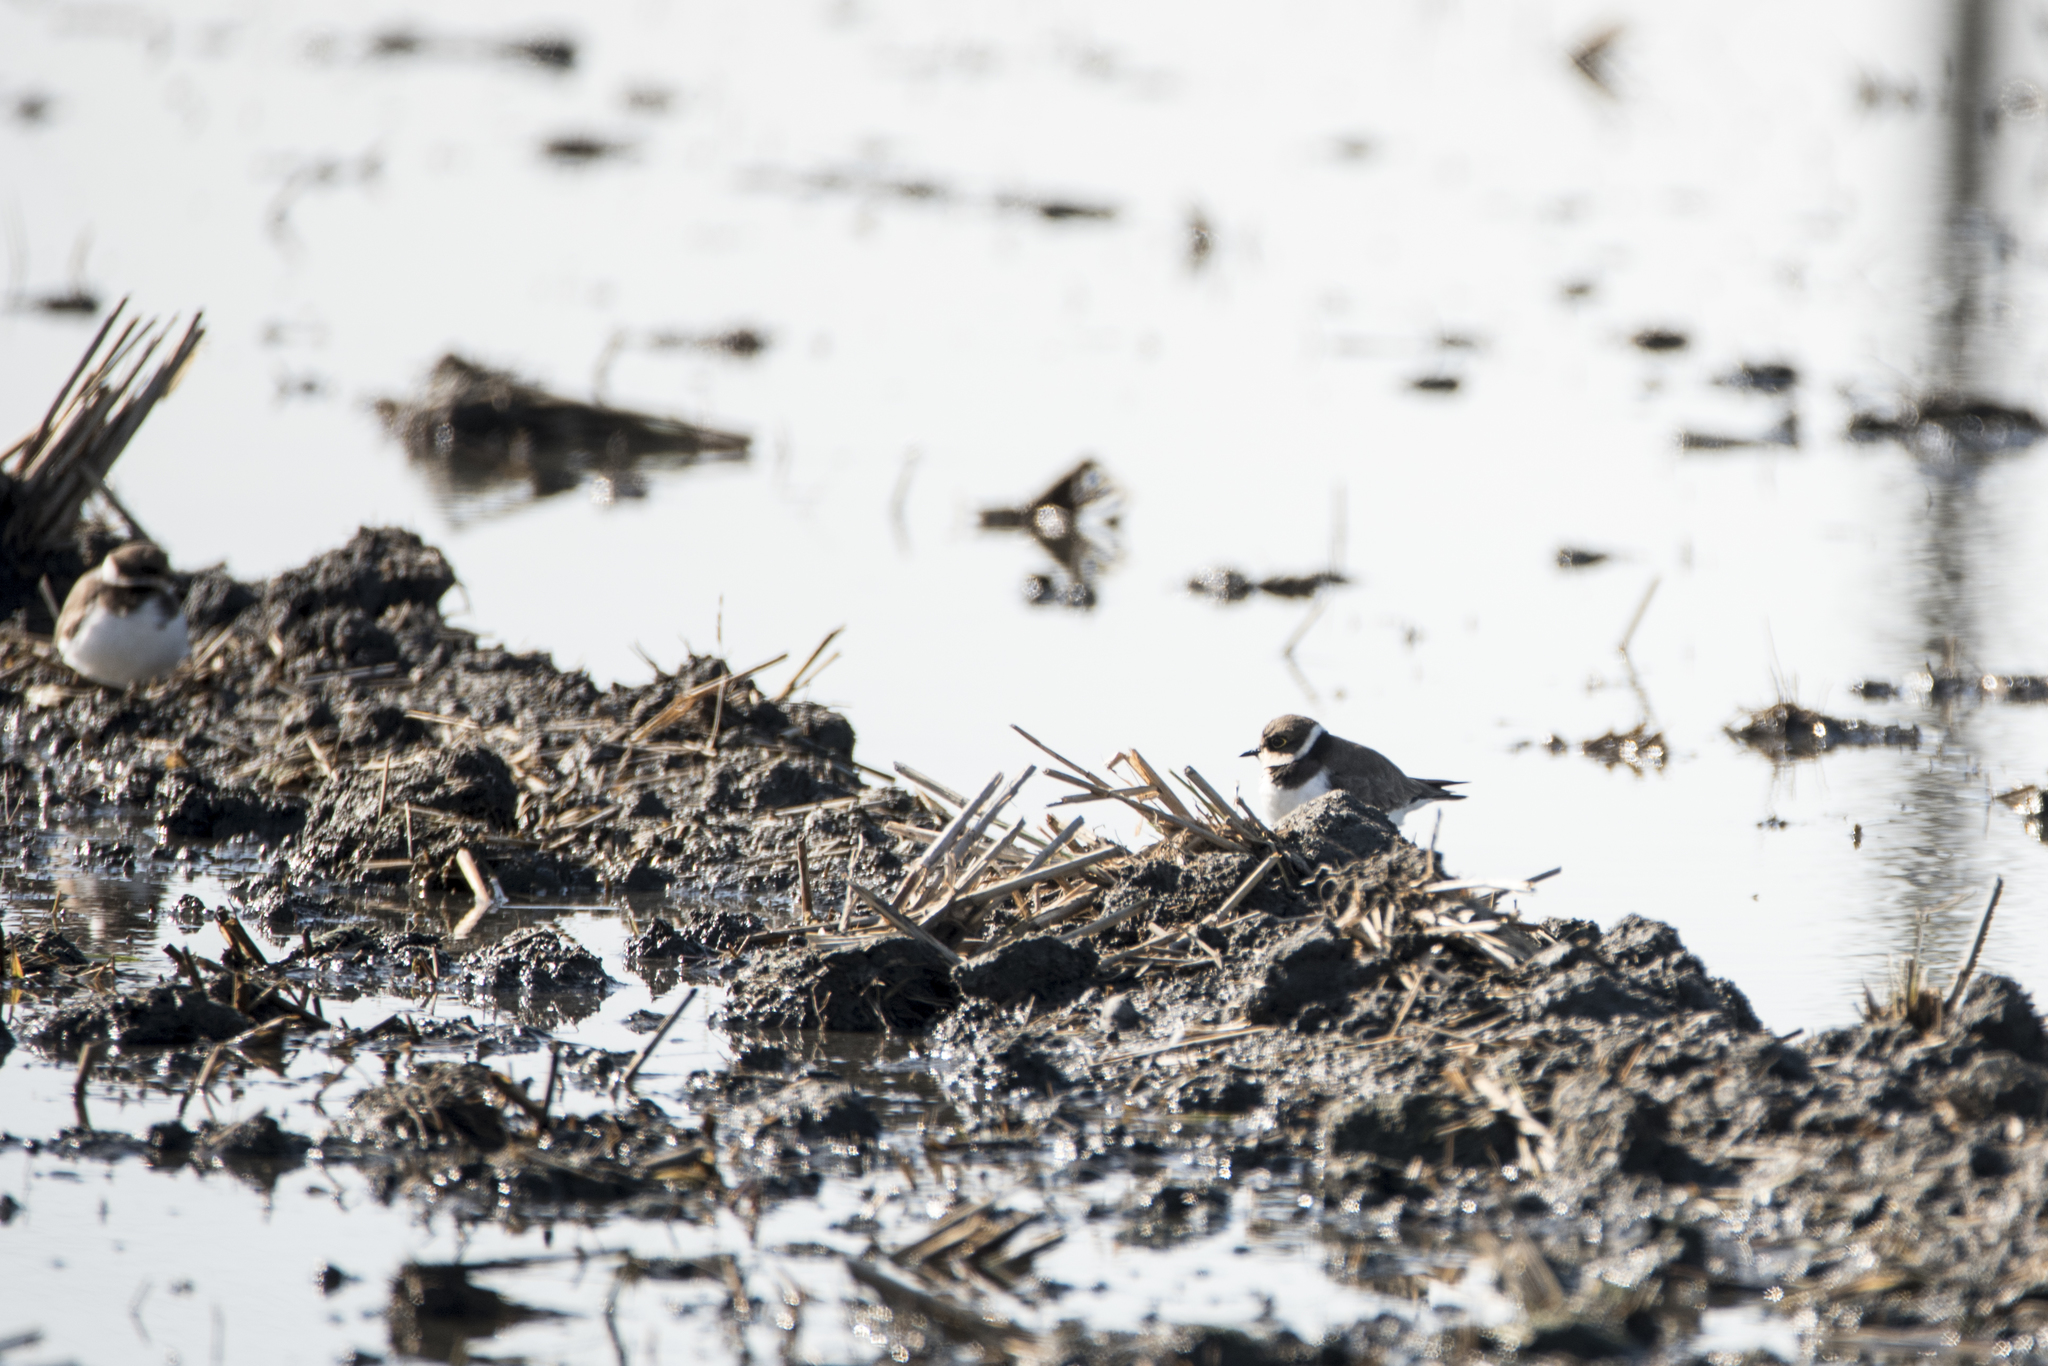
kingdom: Animalia
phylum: Chordata
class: Aves
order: Charadriiformes
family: Charadriidae
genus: Charadrius
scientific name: Charadrius dubius
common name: Little ringed plover
